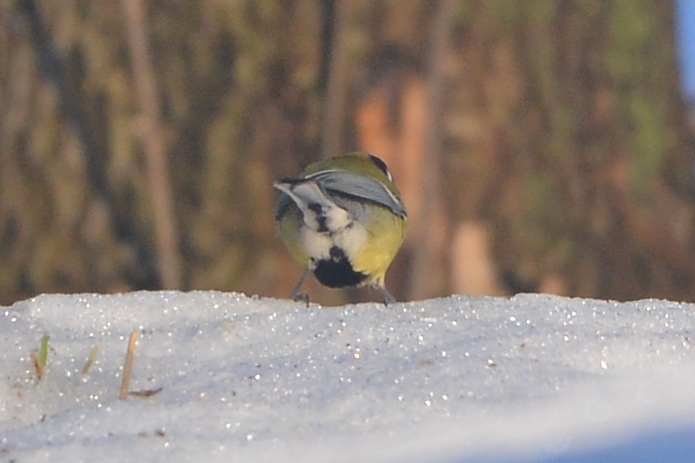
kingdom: Animalia
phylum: Chordata
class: Aves
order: Passeriformes
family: Paridae
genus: Parus
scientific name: Parus major
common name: Great tit
